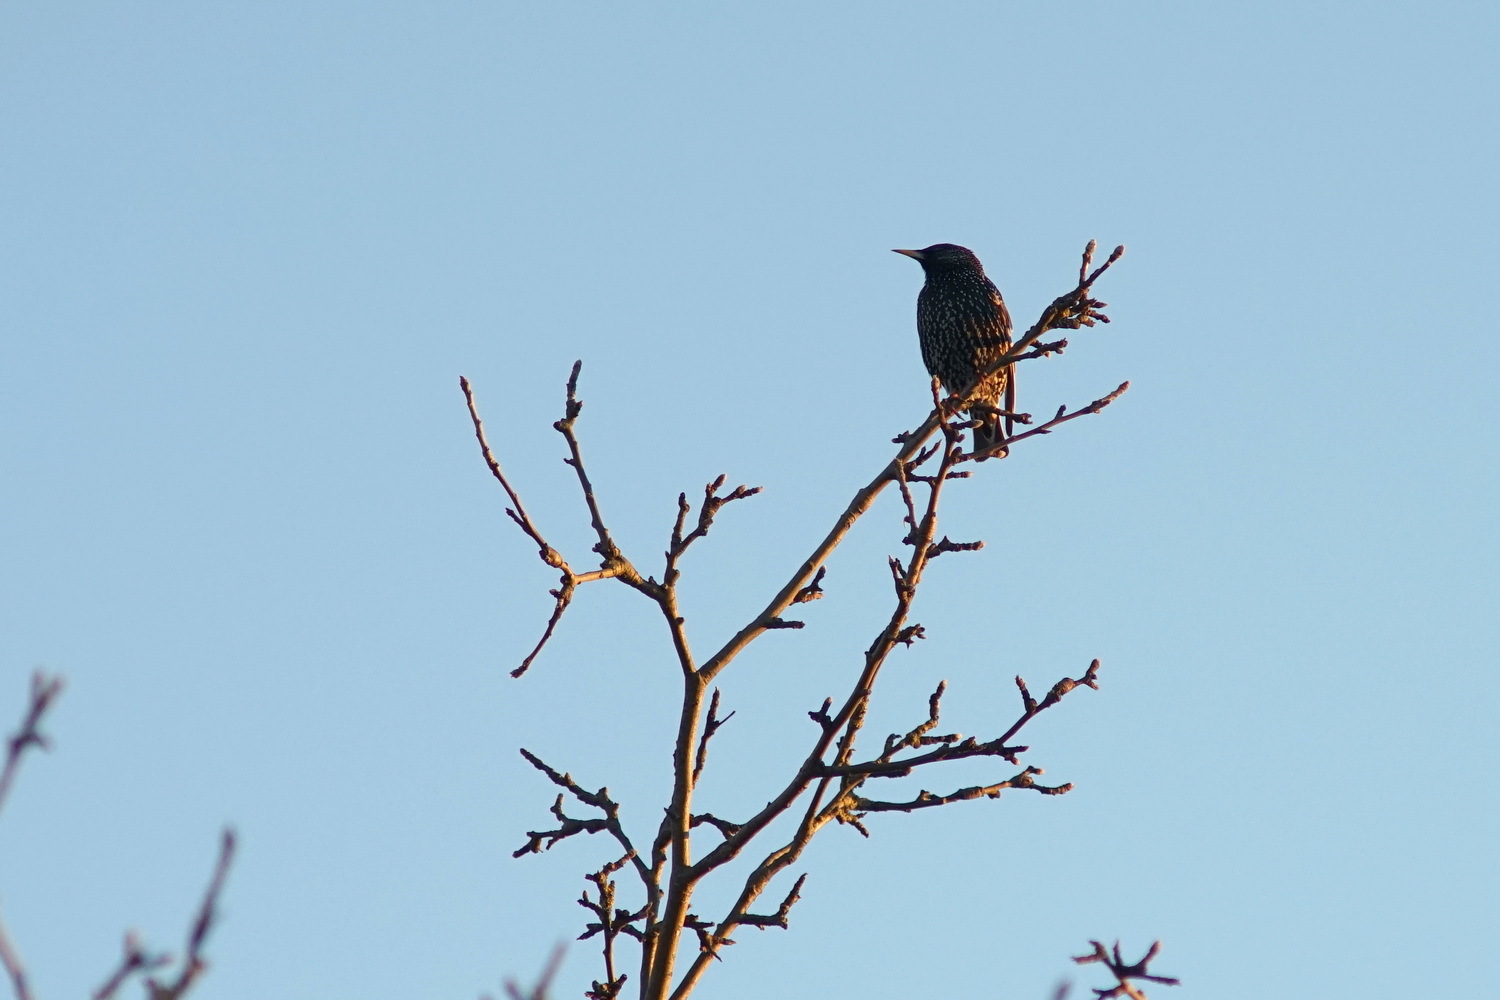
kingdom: Animalia
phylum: Chordata
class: Aves
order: Passeriformes
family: Sturnidae
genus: Sturnus
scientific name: Sturnus vulgaris
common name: Common starling
